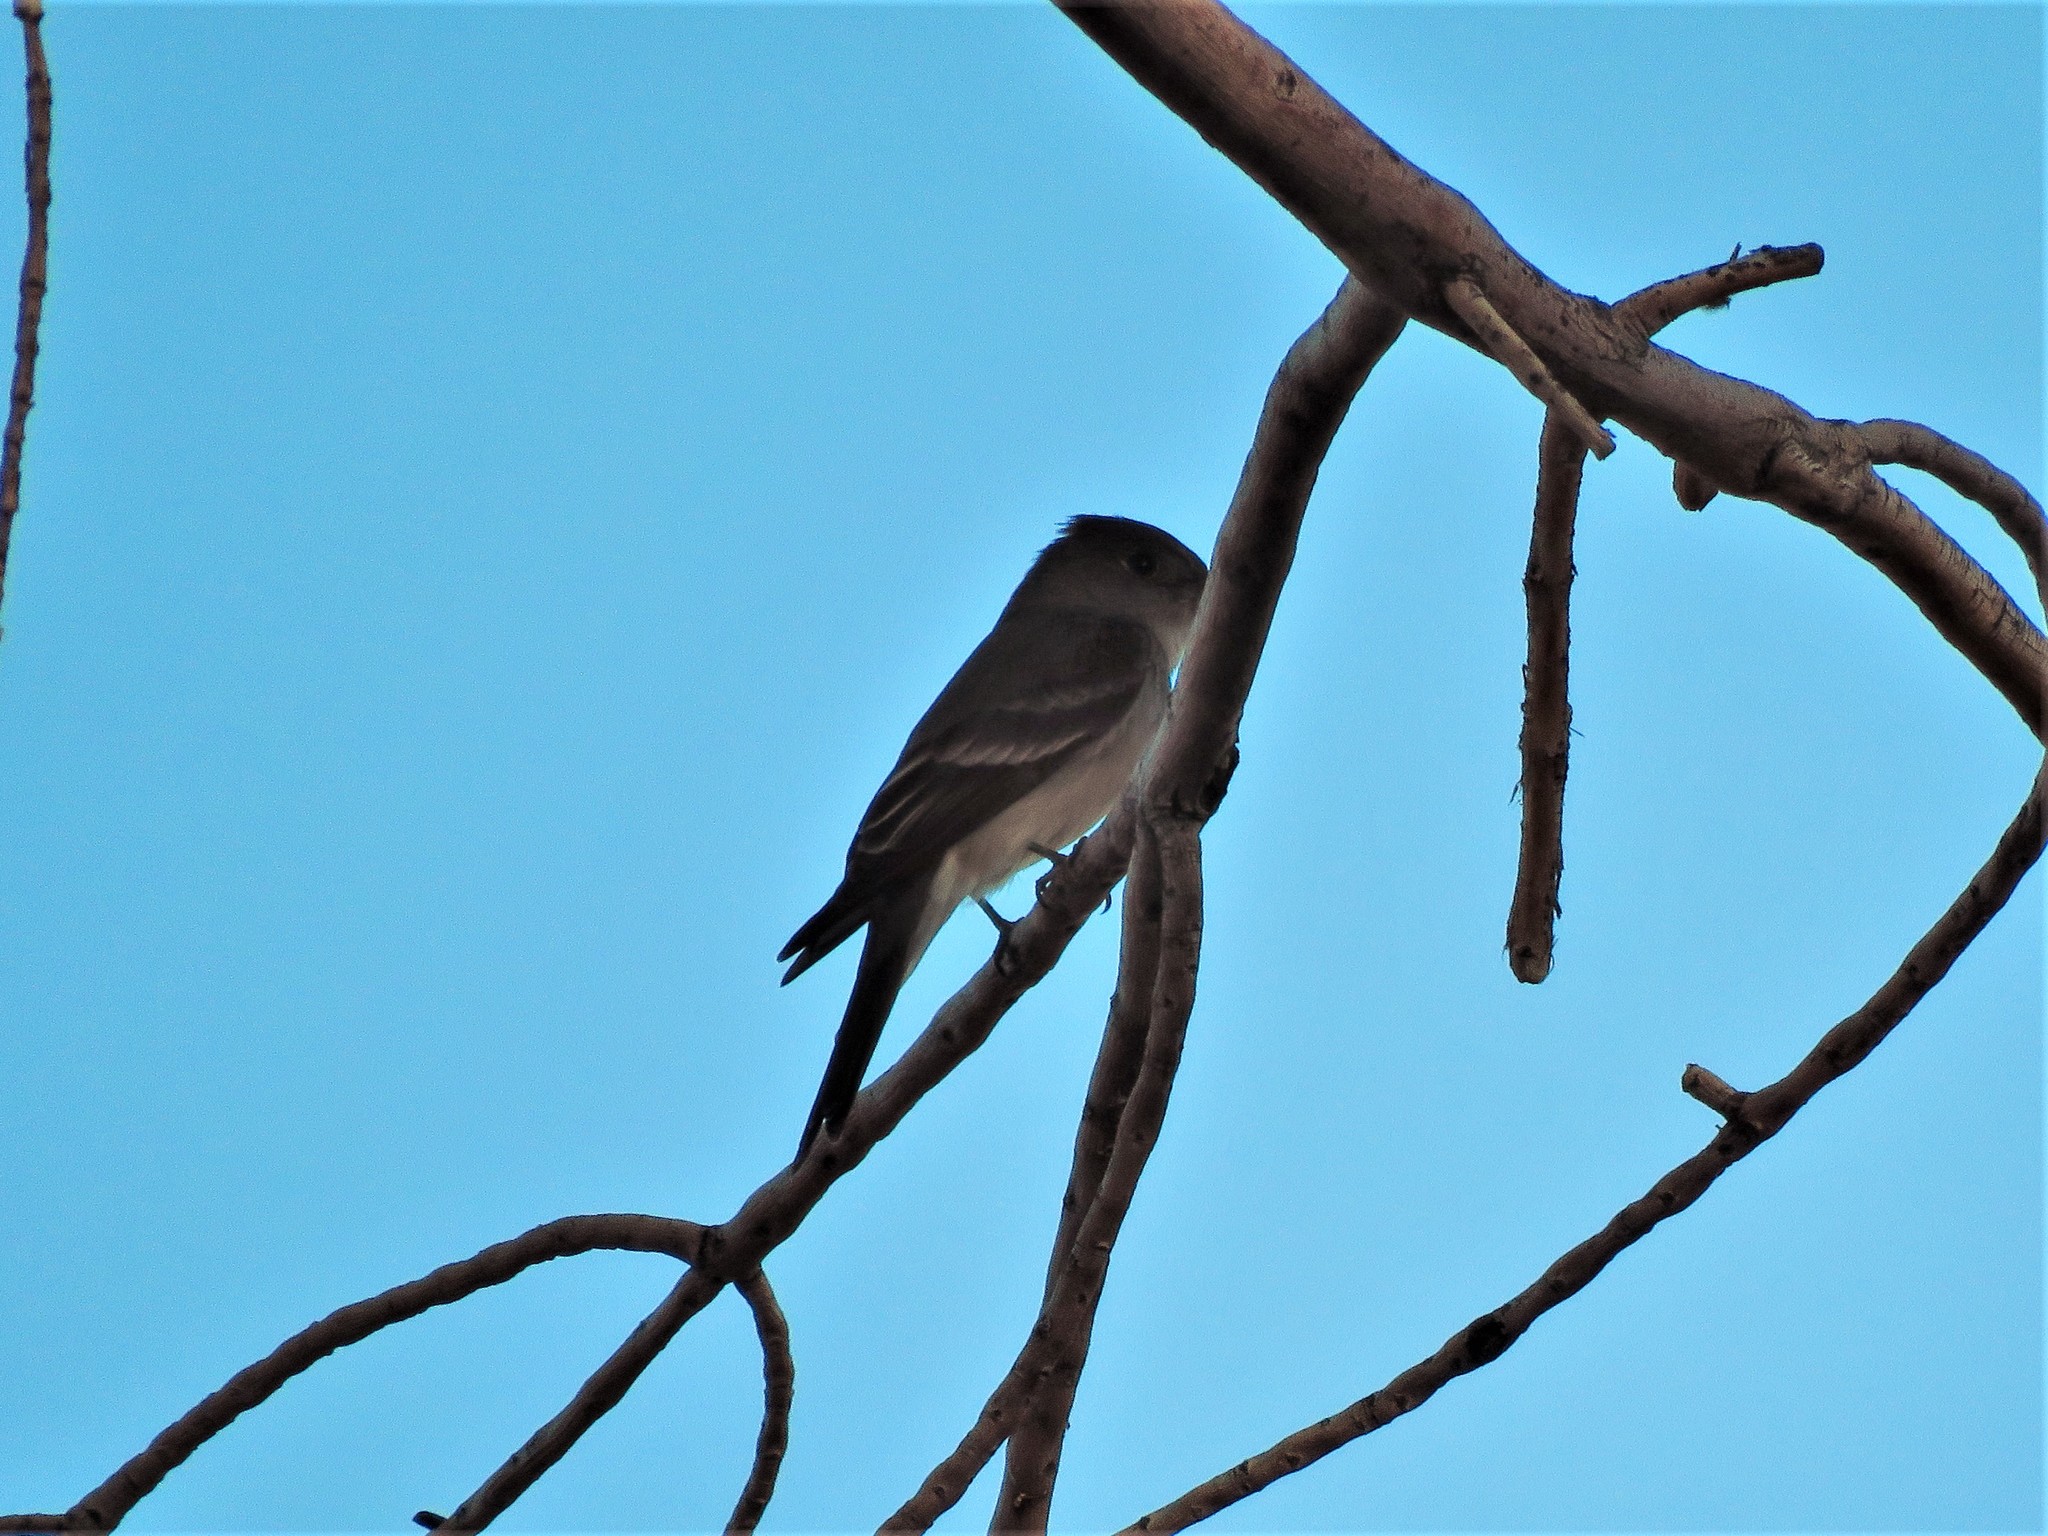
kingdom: Animalia
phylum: Chordata
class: Aves
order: Passeriformes
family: Tyrannidae
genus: Contopus
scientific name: Contopus sordidulus
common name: Western wood-pewee
